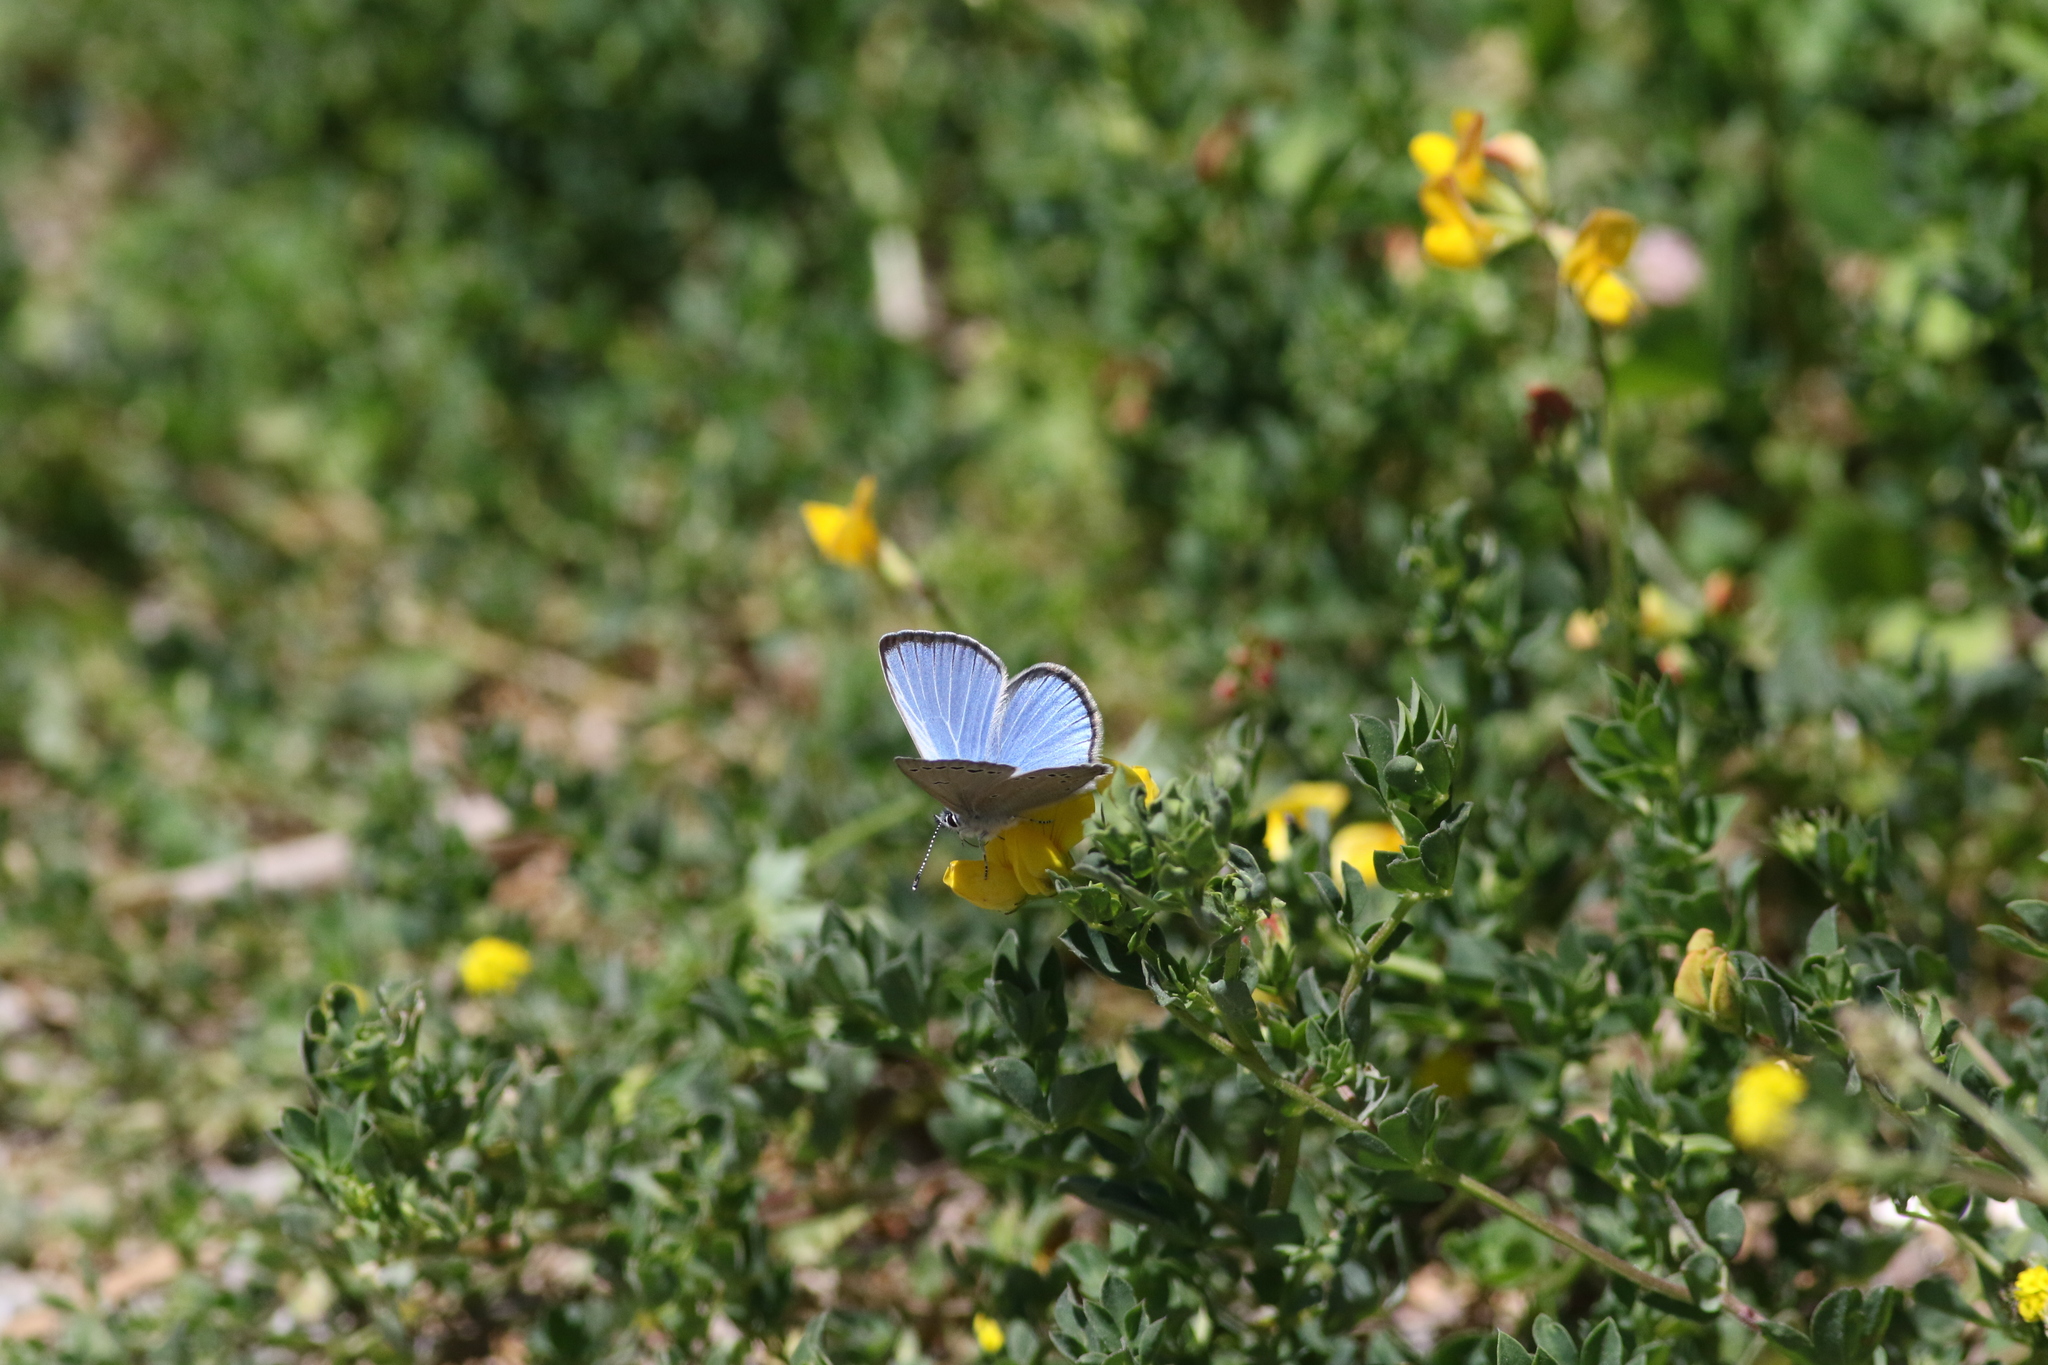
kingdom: Animalia
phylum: Arthropoda
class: Insecta
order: Lepidoptera
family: Lycaenidae
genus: Glaucopsyche
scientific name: Glaucopsyche lygdamus
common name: Silvery blue
